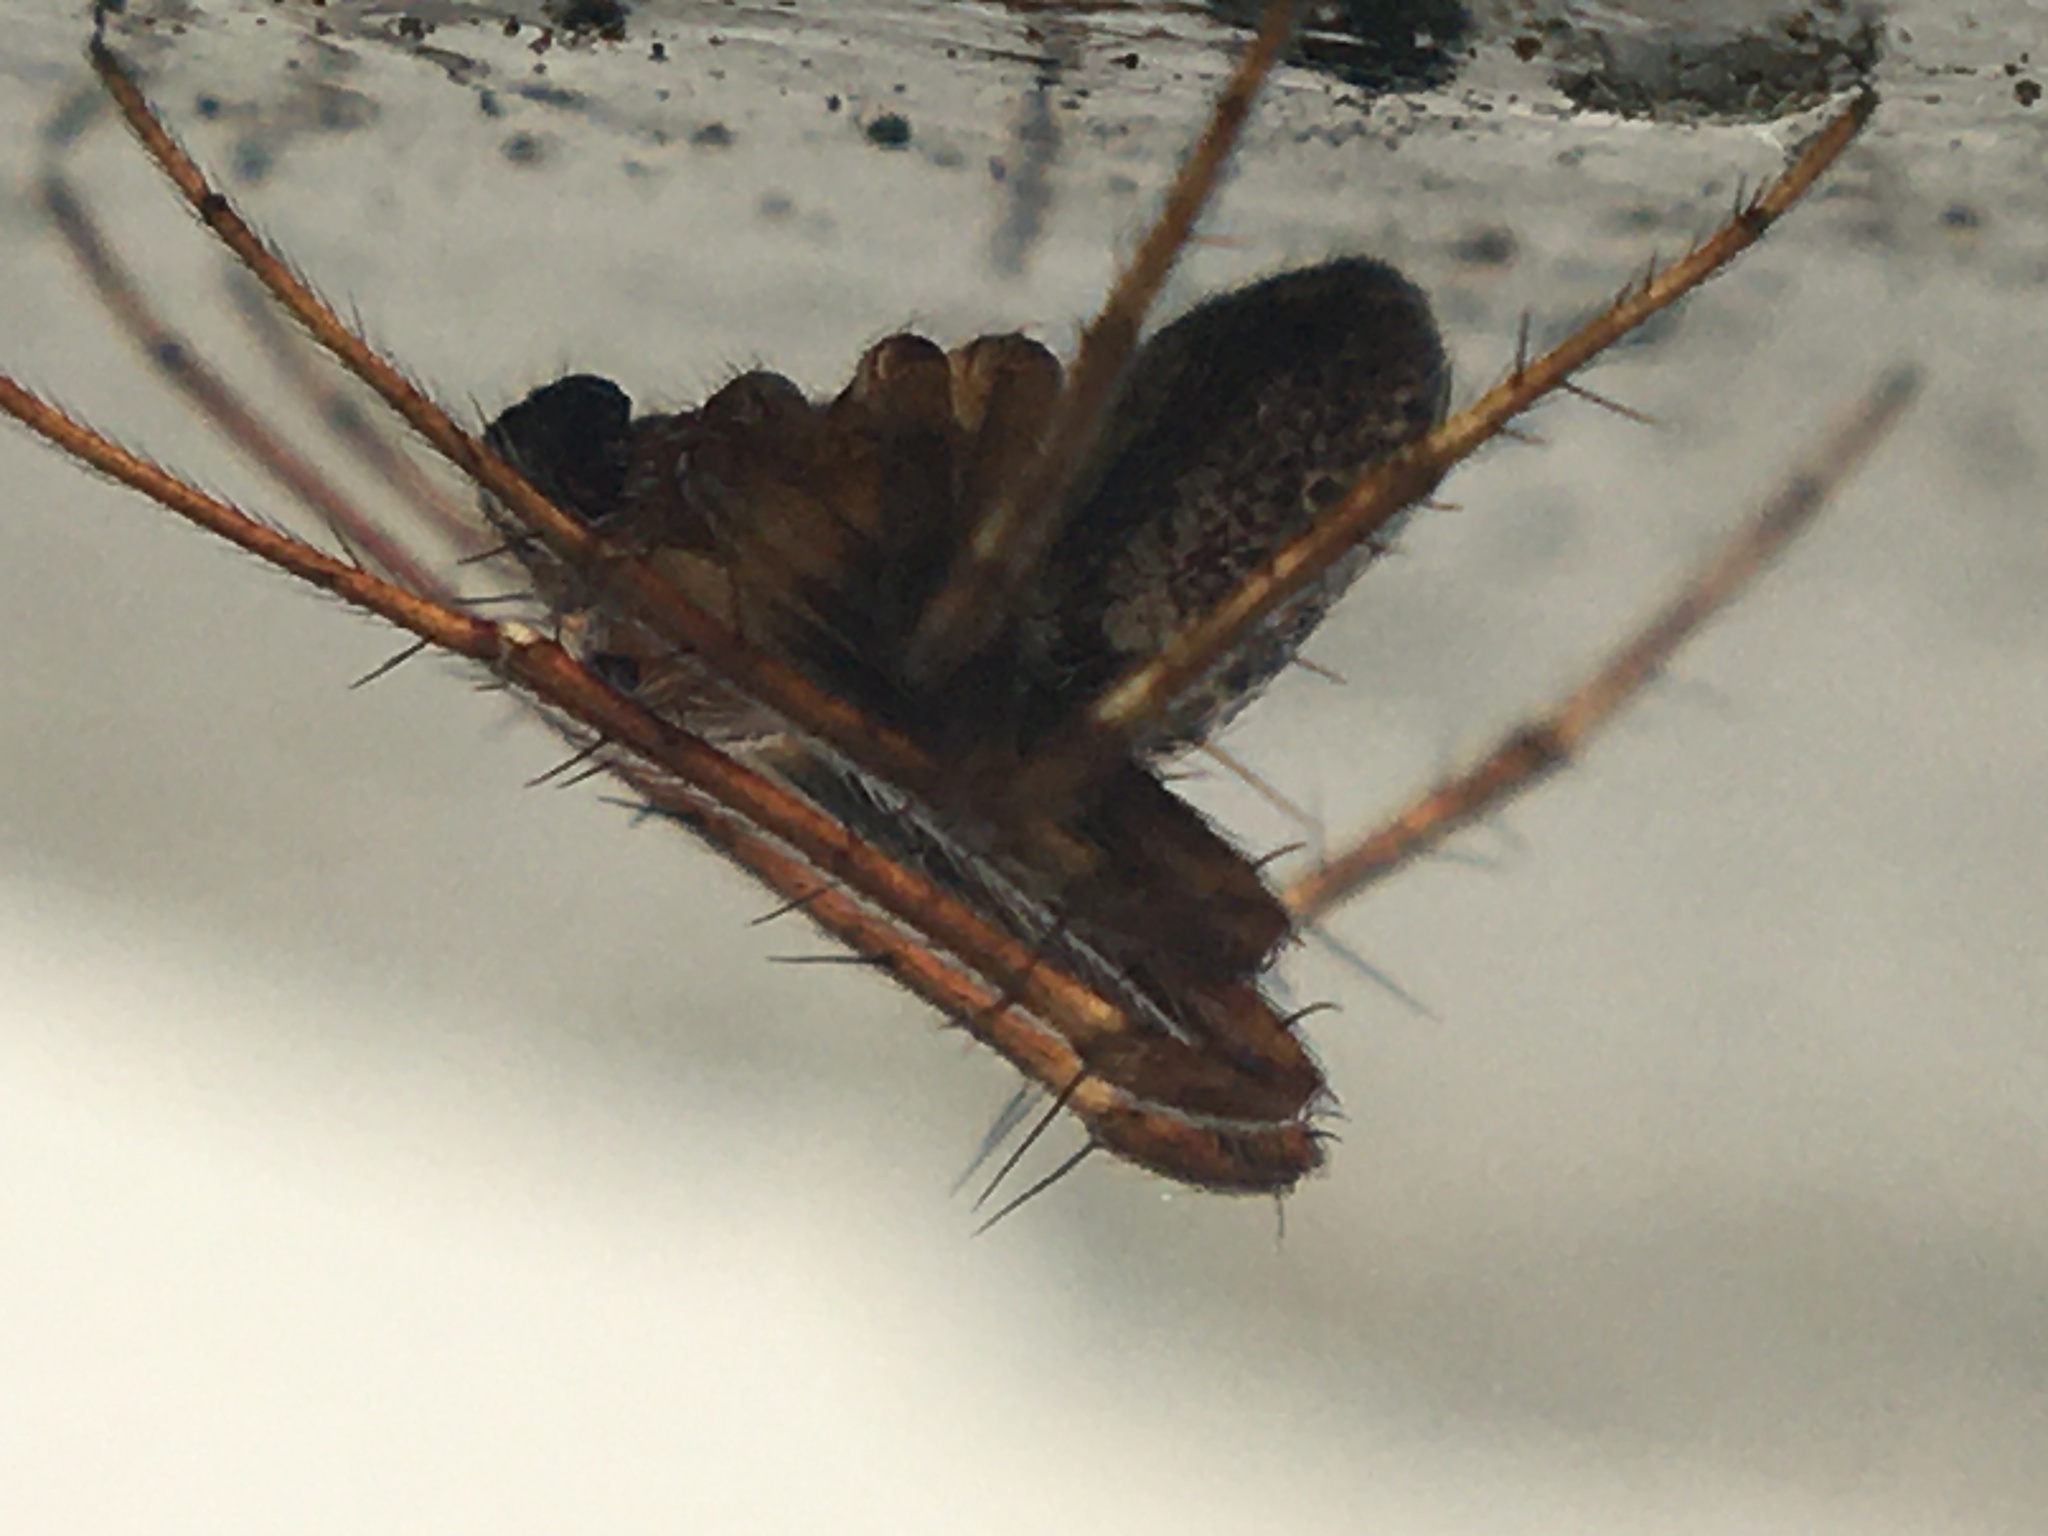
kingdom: Animalia
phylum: Arthropoda
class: Arachnida
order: Araneae
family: Araneidae
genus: Zilla
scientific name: Zilla diodia
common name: Zilla diodia
